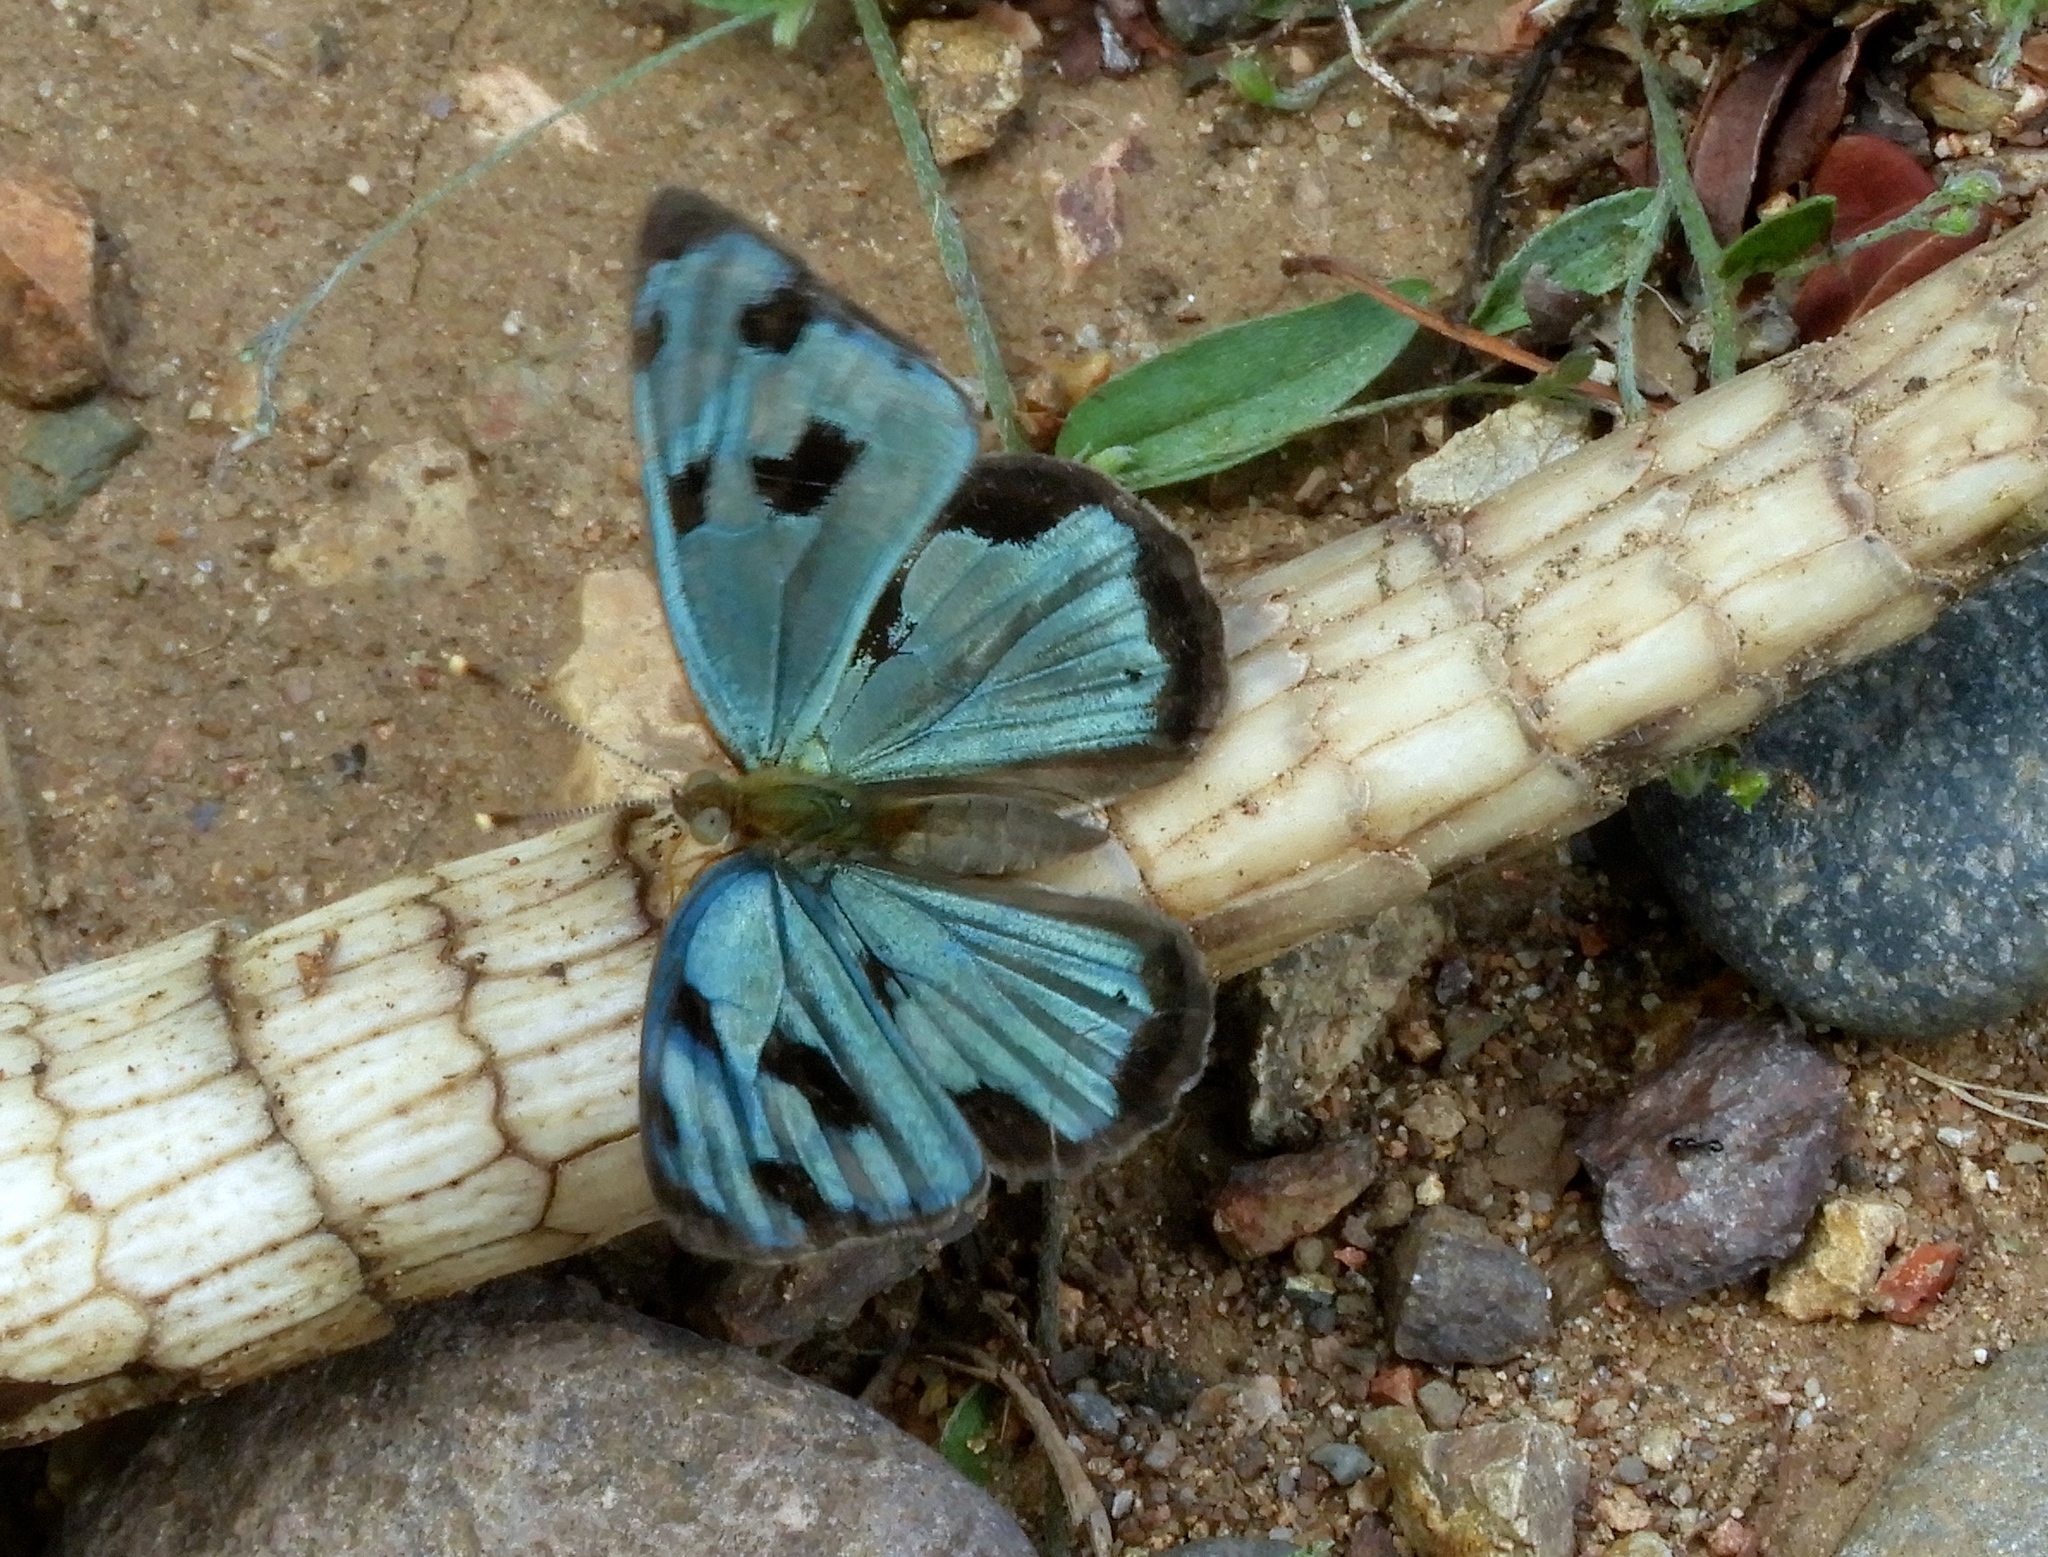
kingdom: Animalia
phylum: Arthropoda
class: Insecta
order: Lepidoptera
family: Nymphalidae
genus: Dynamine
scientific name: Dynamine mylitta
